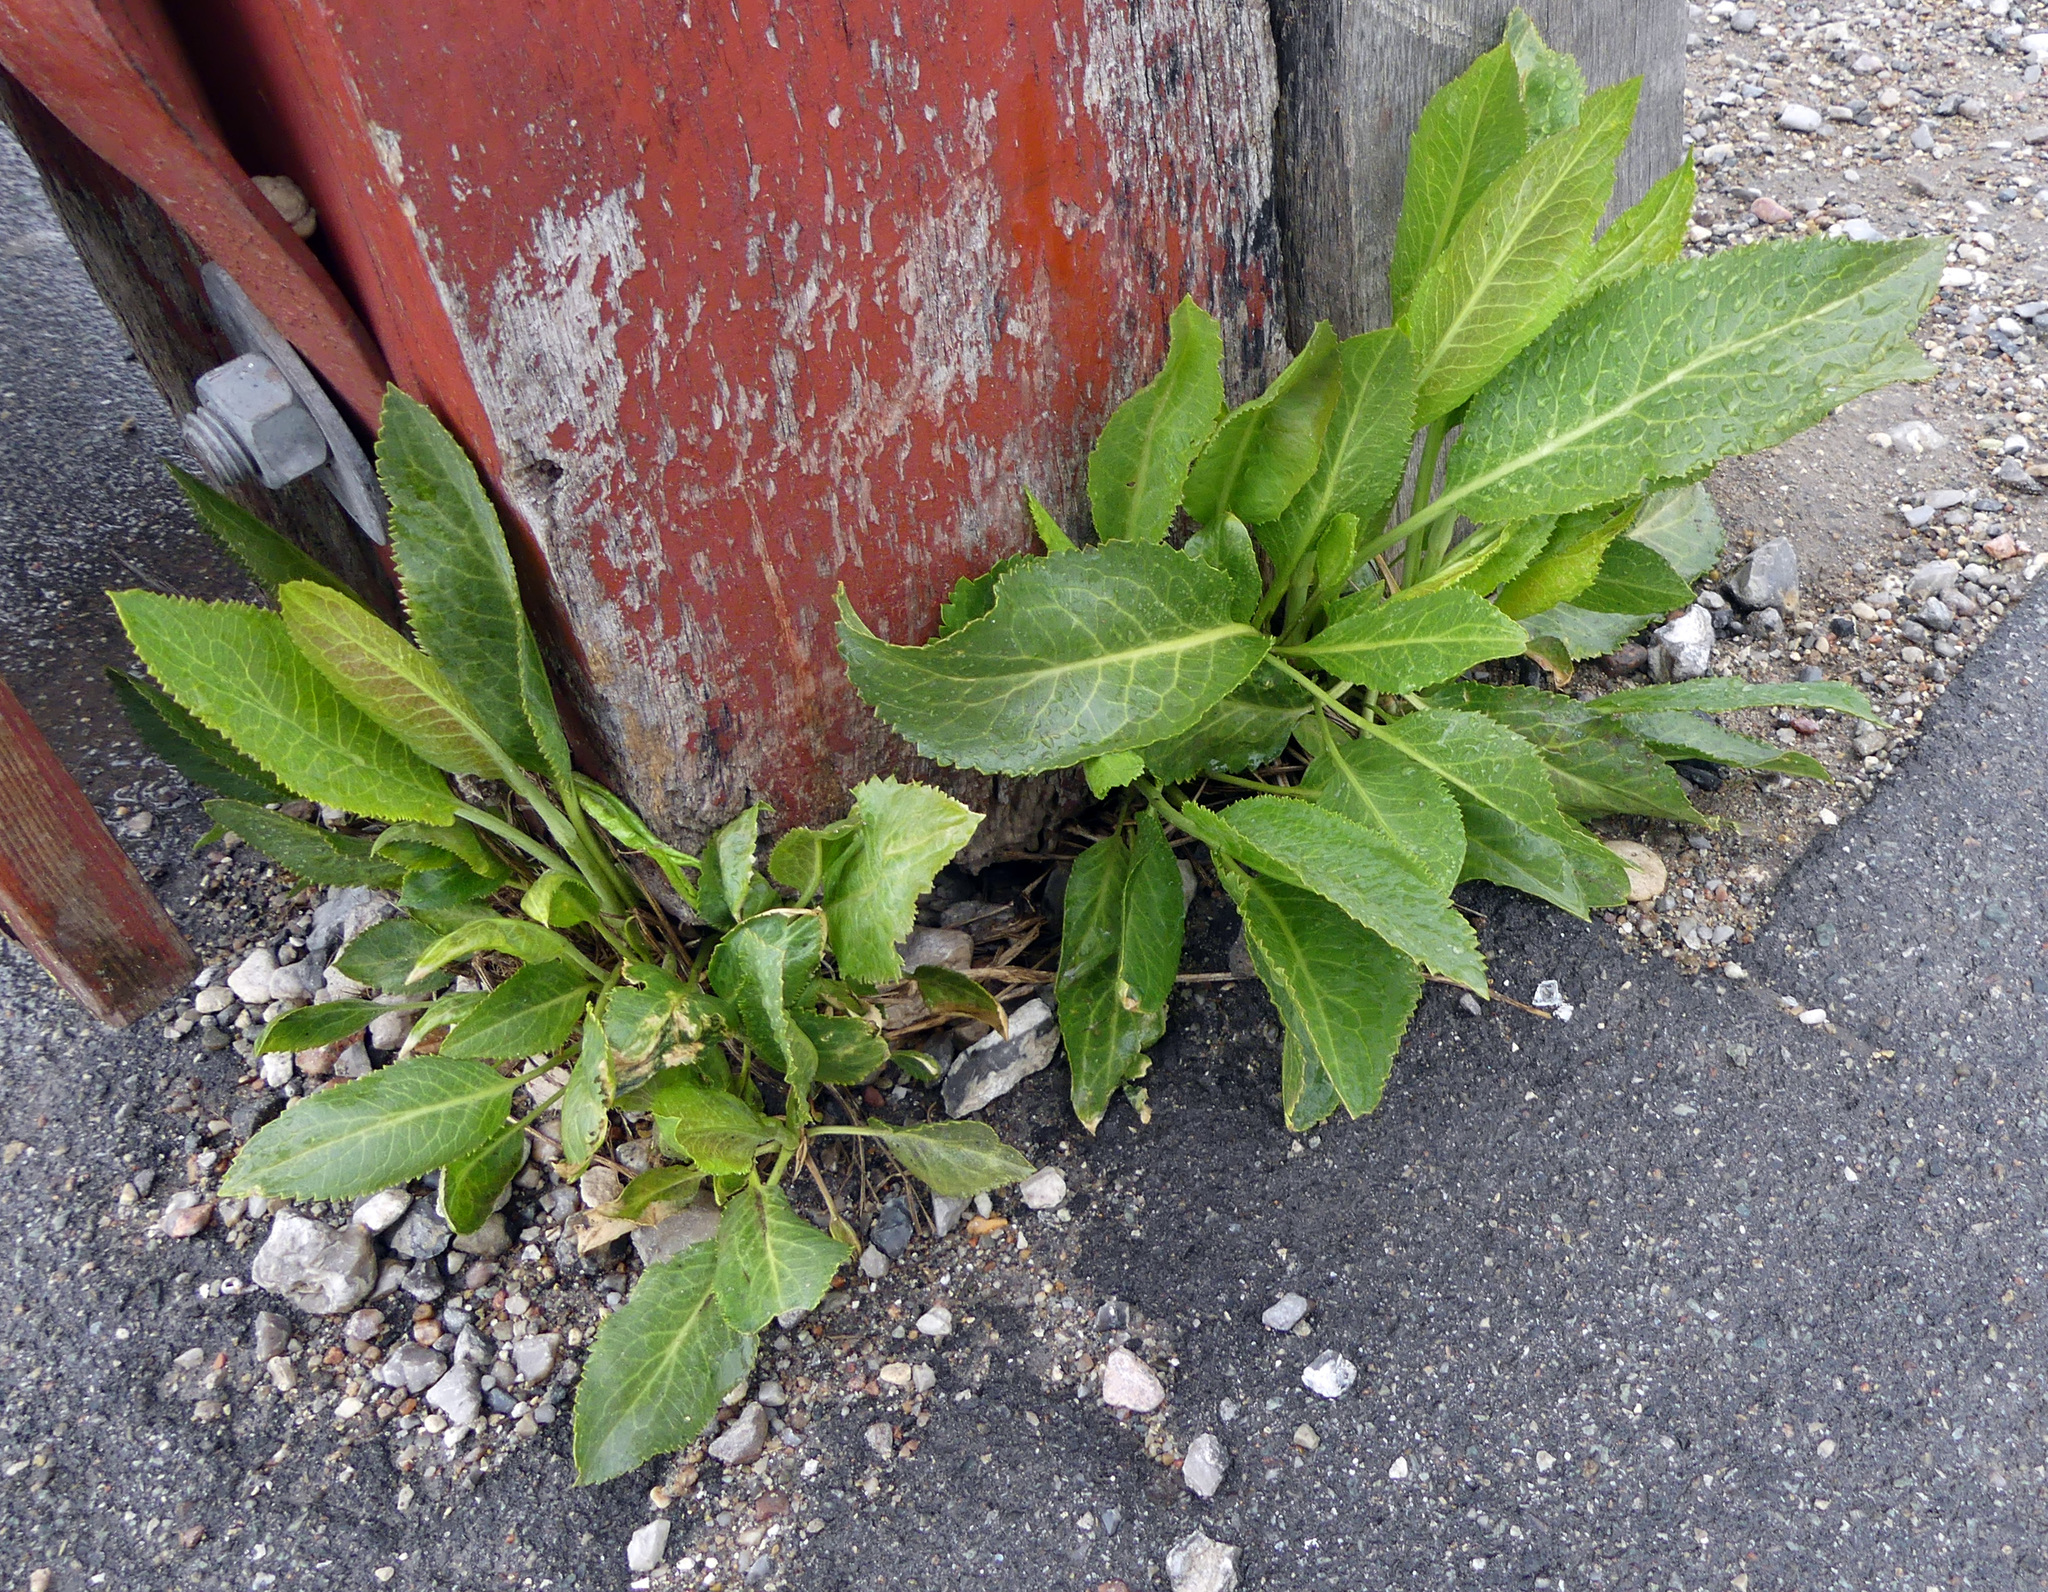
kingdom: Plantae
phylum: Tracheophyta
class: Magnoliopsida
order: Brassicales
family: Brassicaceae
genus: Lepidium
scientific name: Lepidium latifolium
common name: Dittander
